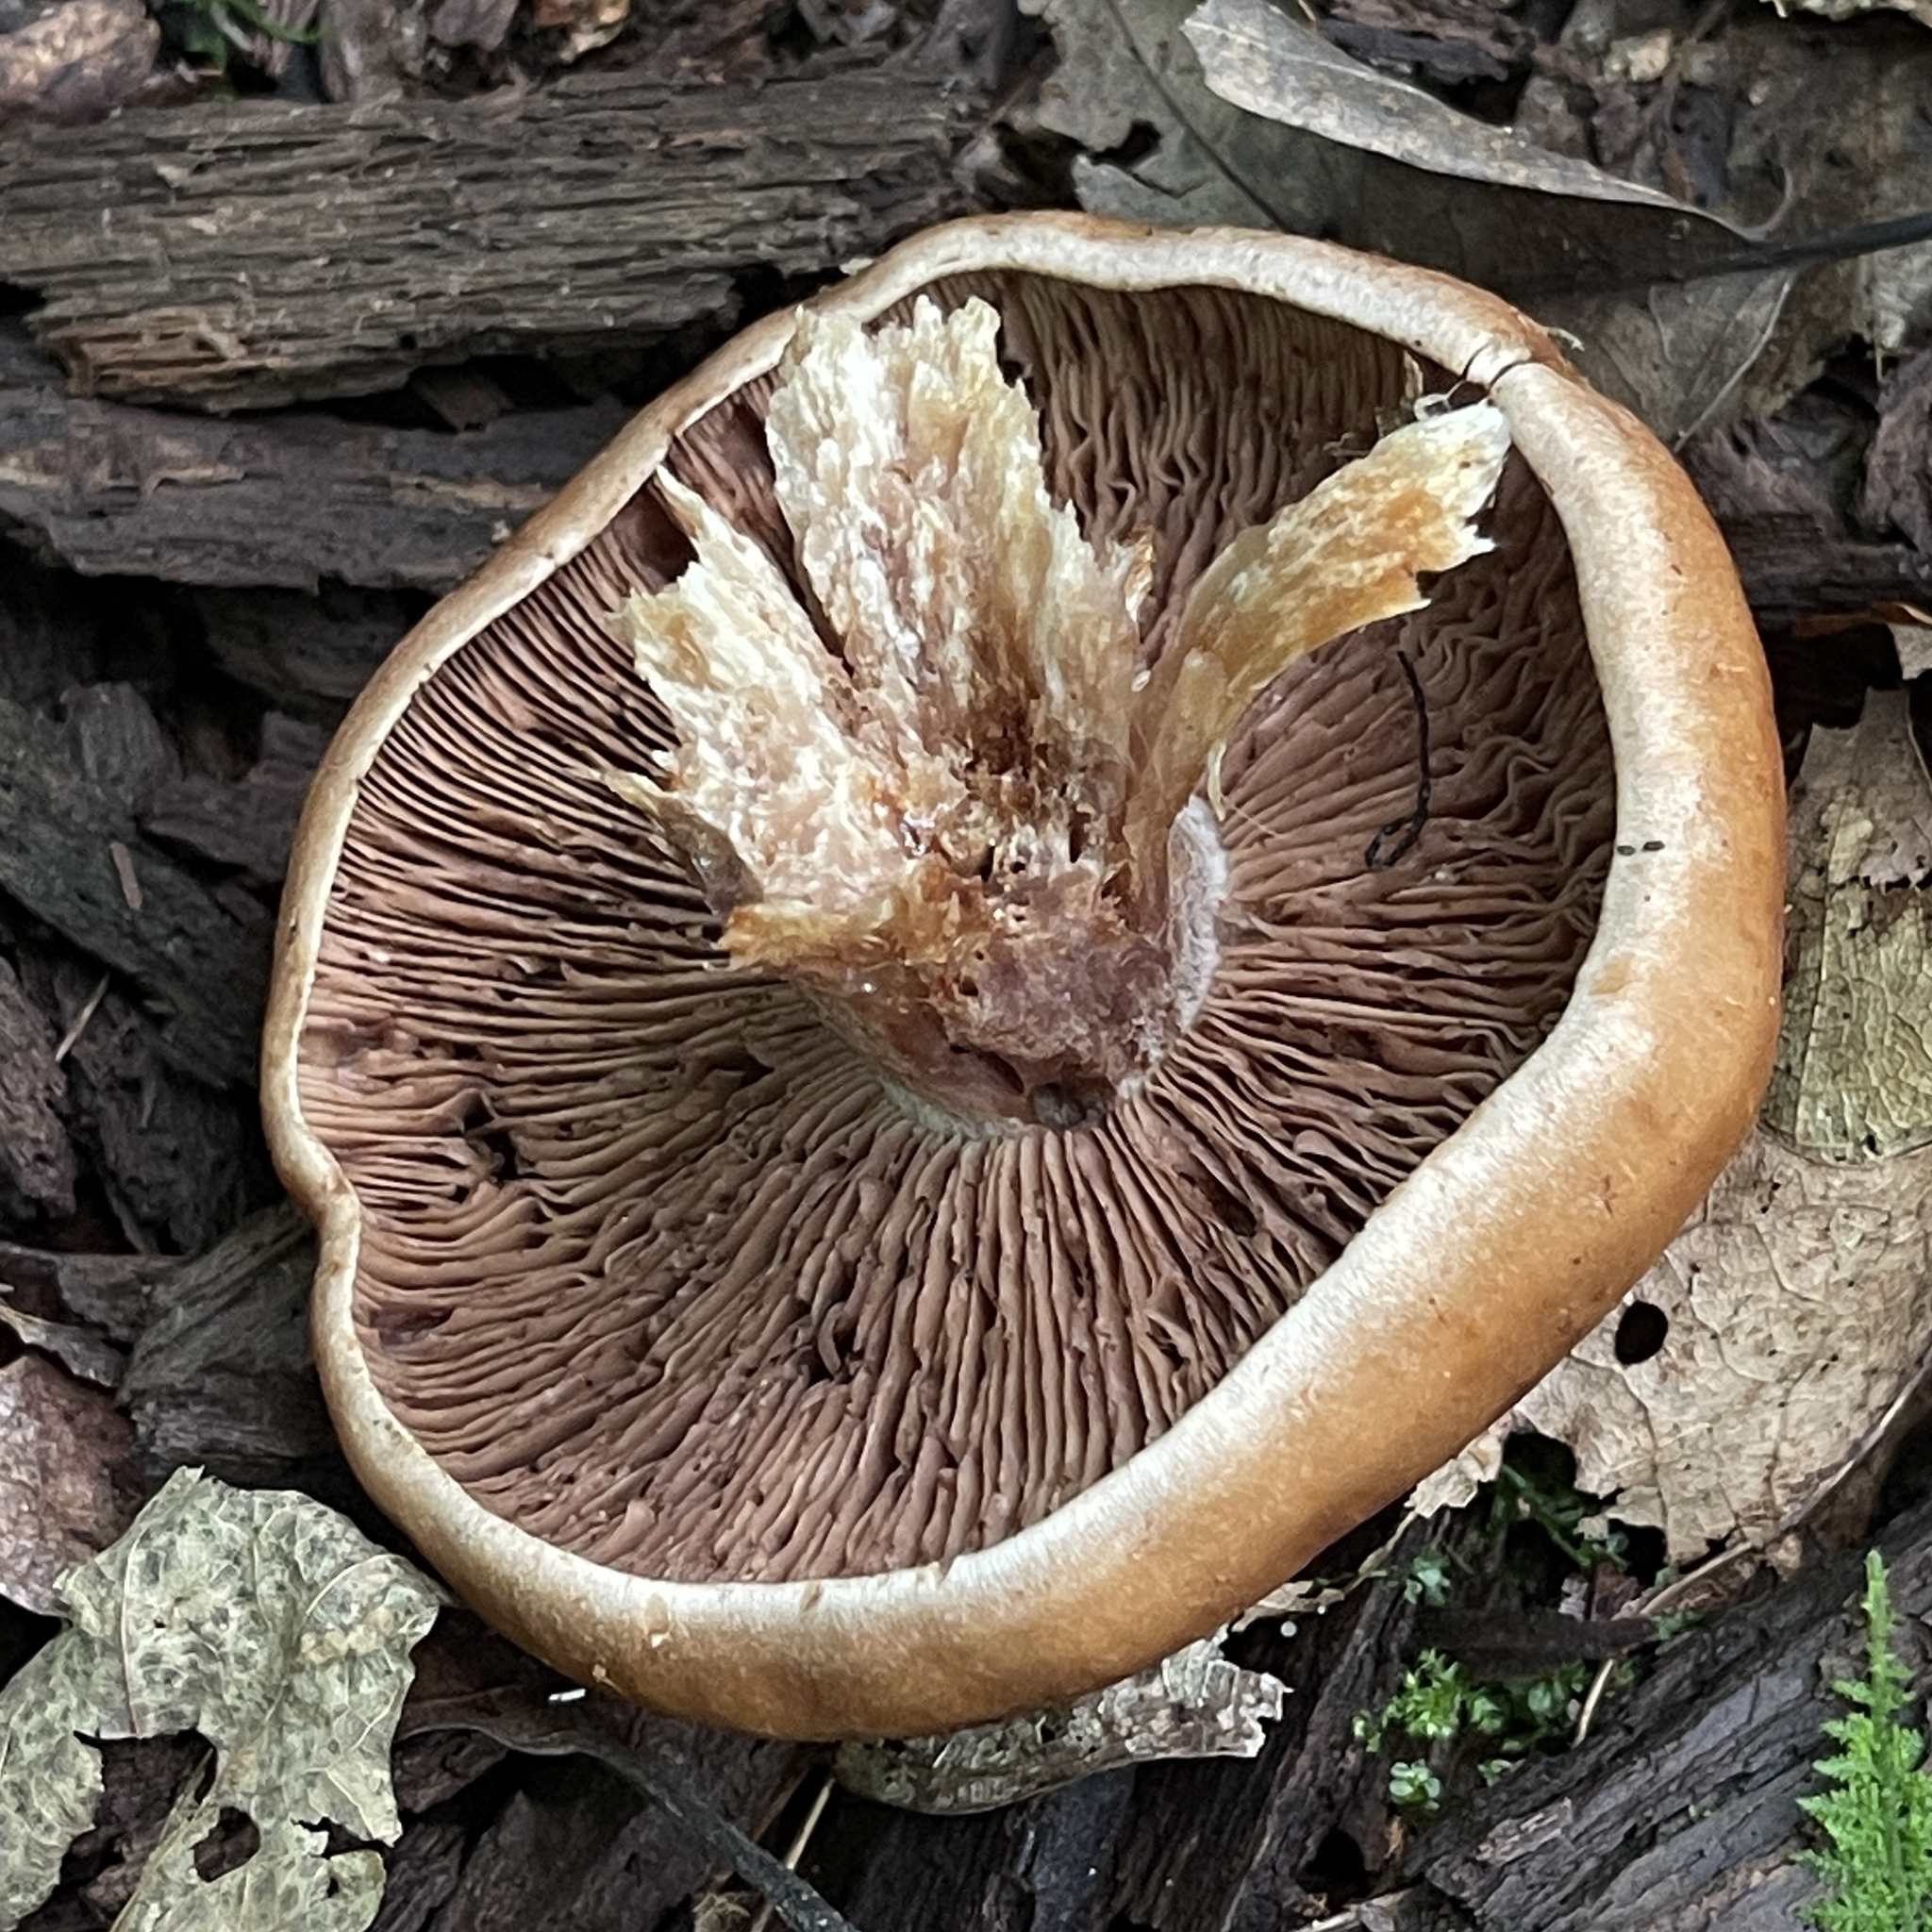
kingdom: Fungi
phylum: Basidiomycota
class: Agaricomycetes
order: Agaricales
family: Cortinariaceae
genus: Cortinarius
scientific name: Cortinarius corrugatus
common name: Wrinkled cortinarius
